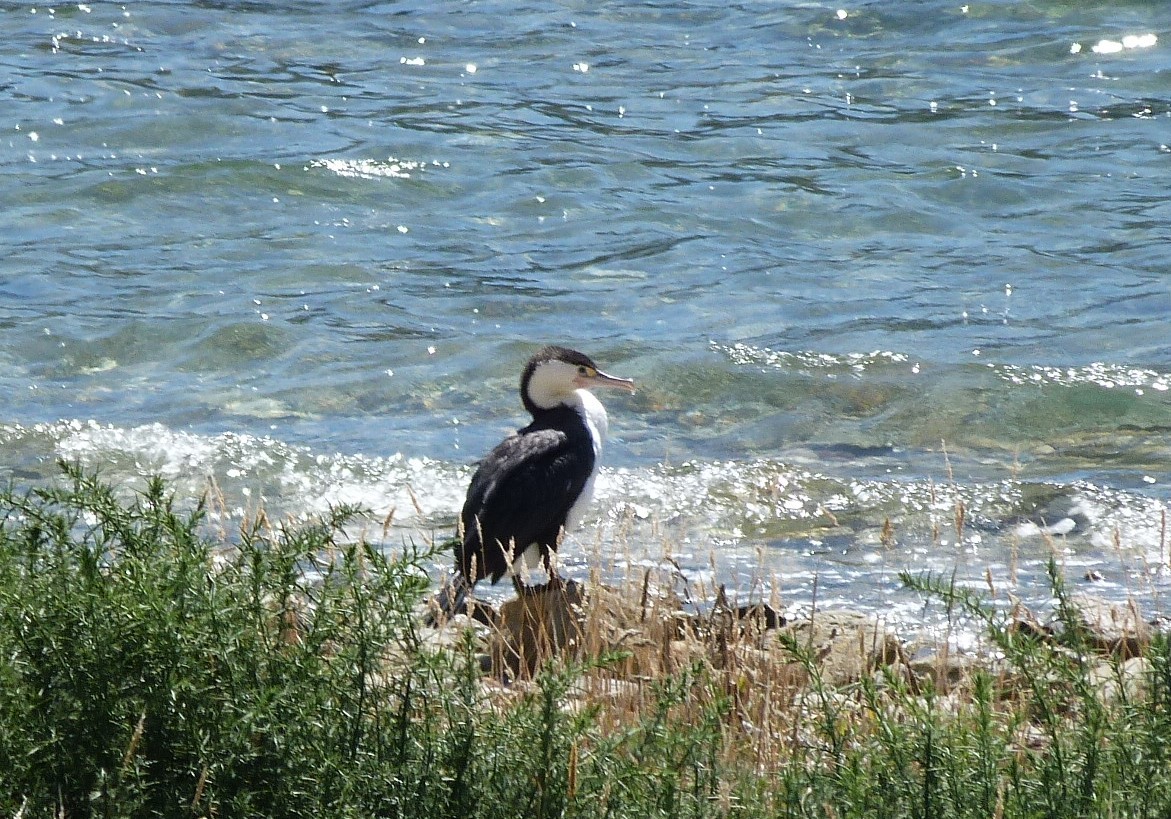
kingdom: Animalia
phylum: Chordata
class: Aves
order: Suliformes
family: Phalacrocoracidae
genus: Phalacrocorax
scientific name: Phalacrocorax varius
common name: Pied cormorant
